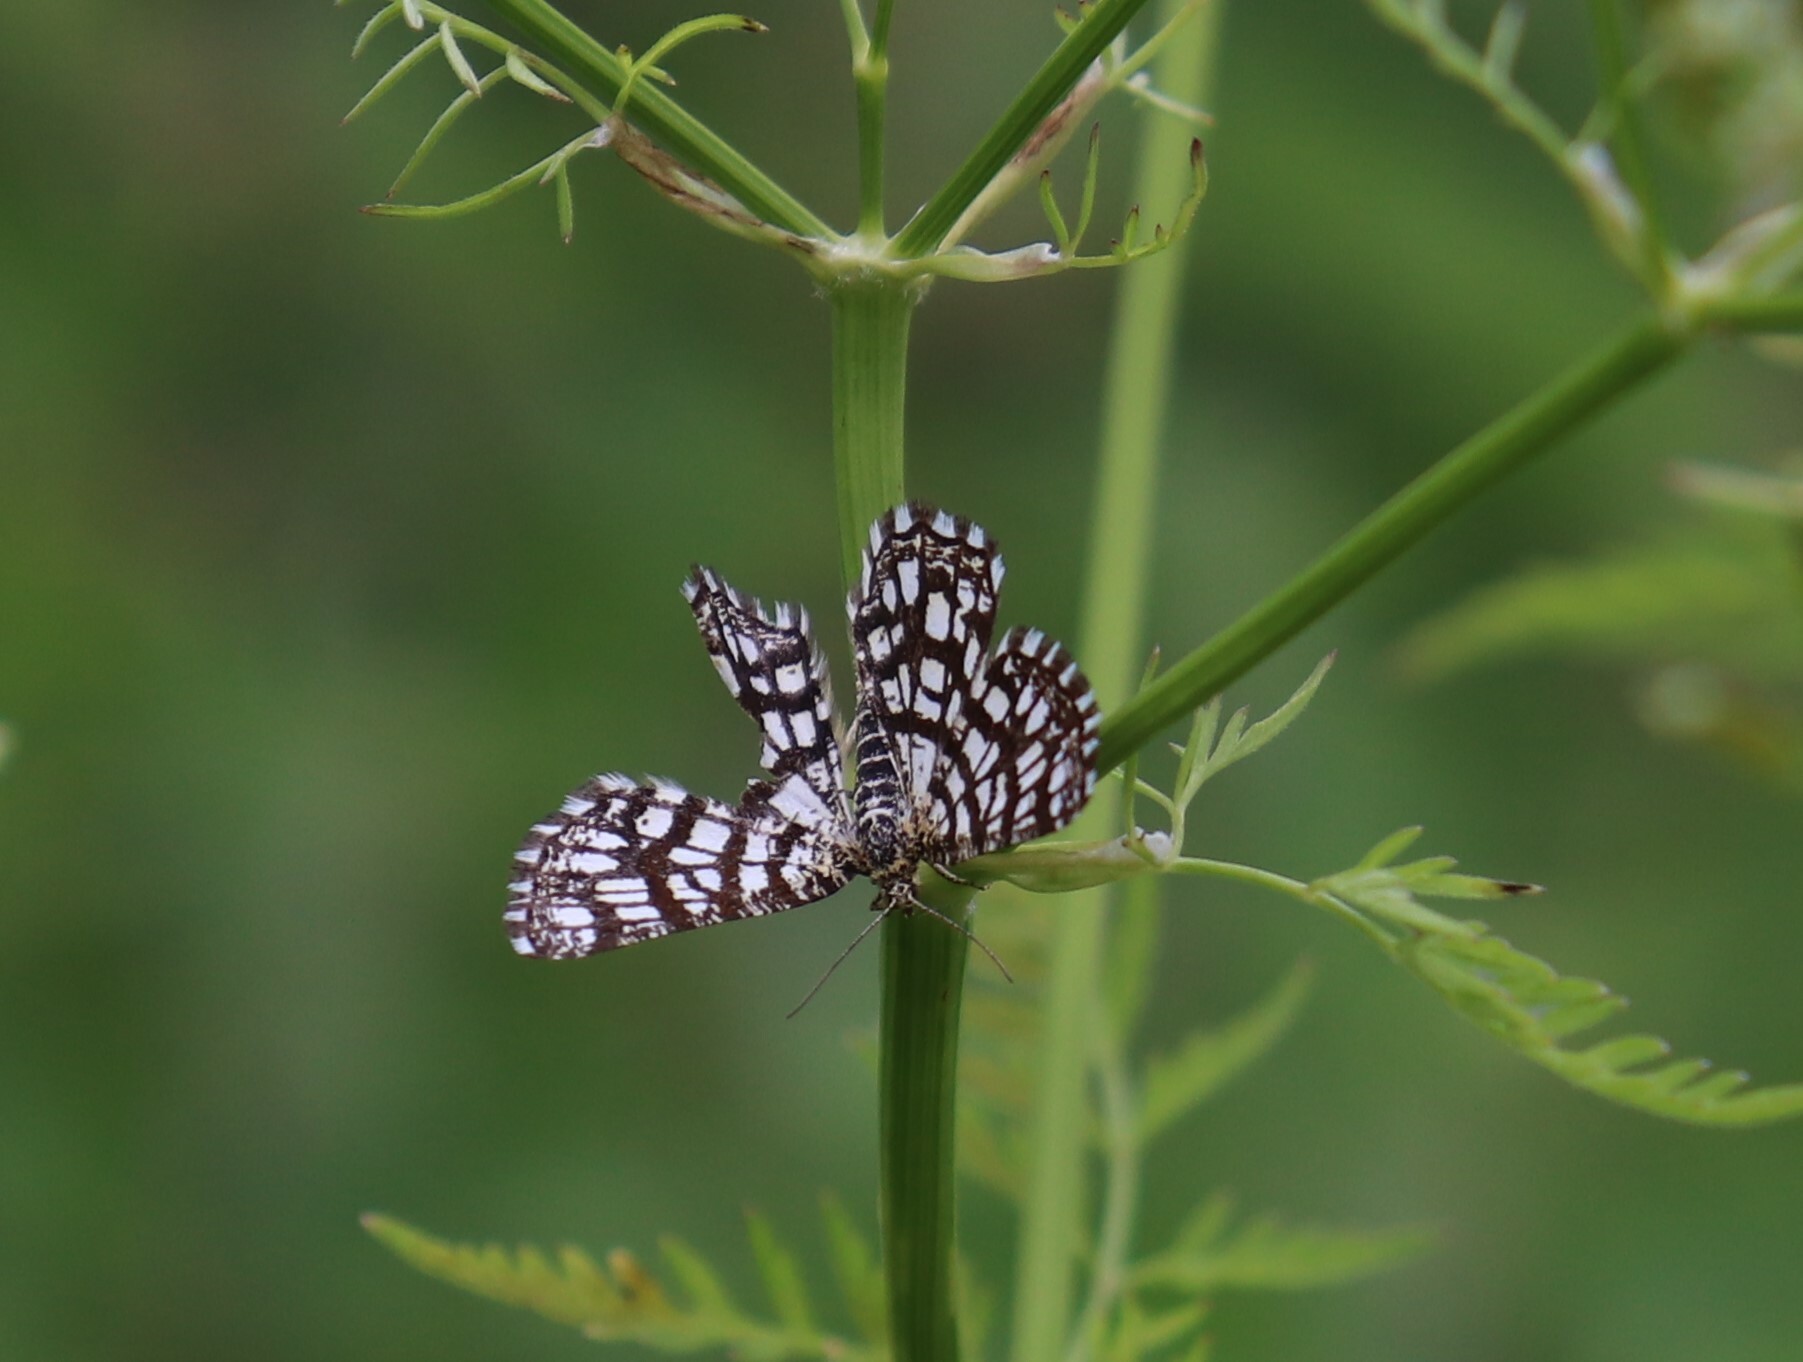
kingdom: Animalia
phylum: Arthropoda
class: Insecta
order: Lepidoptera
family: Geometridae
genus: Chiasmia
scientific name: Chiasmia clathrata
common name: Latticed heath
